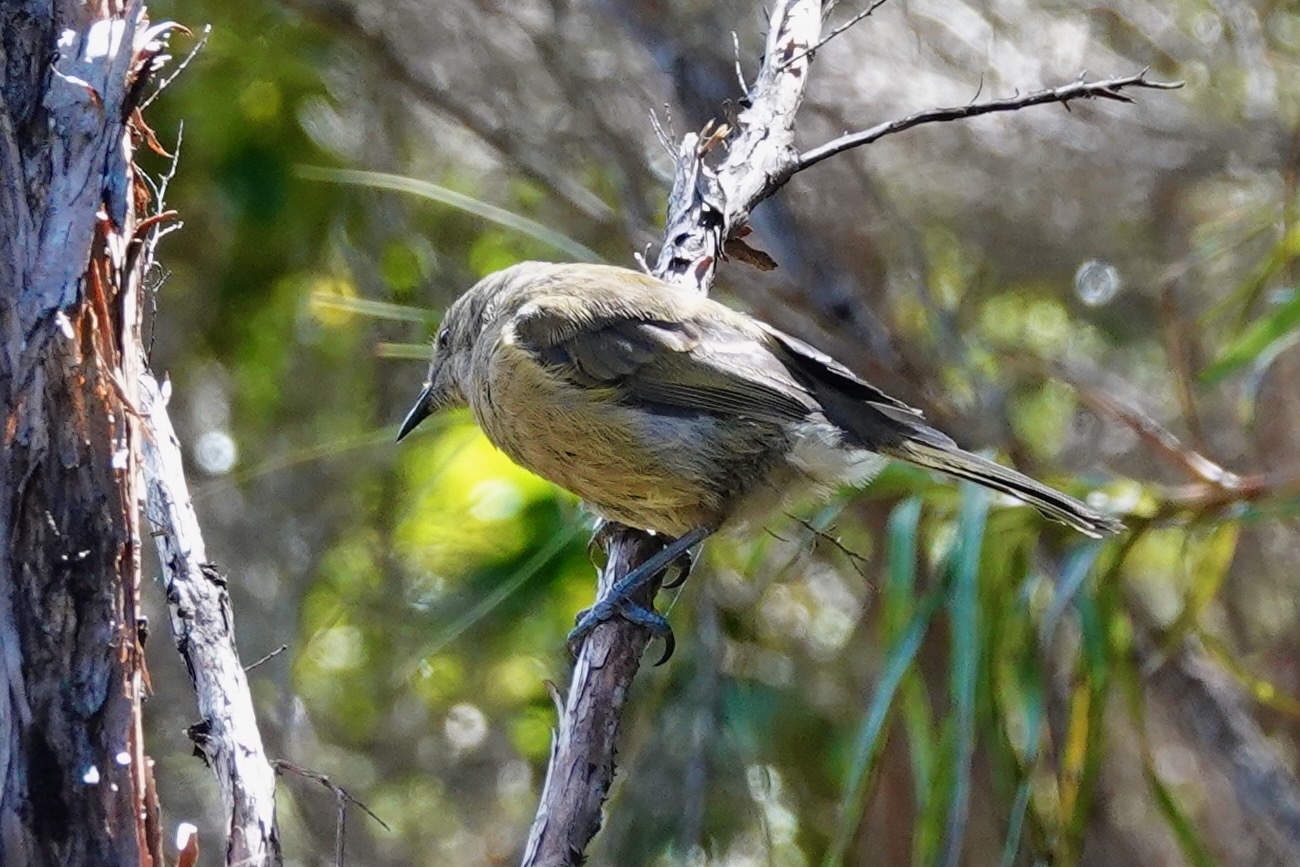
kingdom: Animalia
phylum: Chordata
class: Aves
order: Passeriformes
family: Meliphagidae
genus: Anthornis
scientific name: Anthornis melanura
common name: New zealand bellbird
